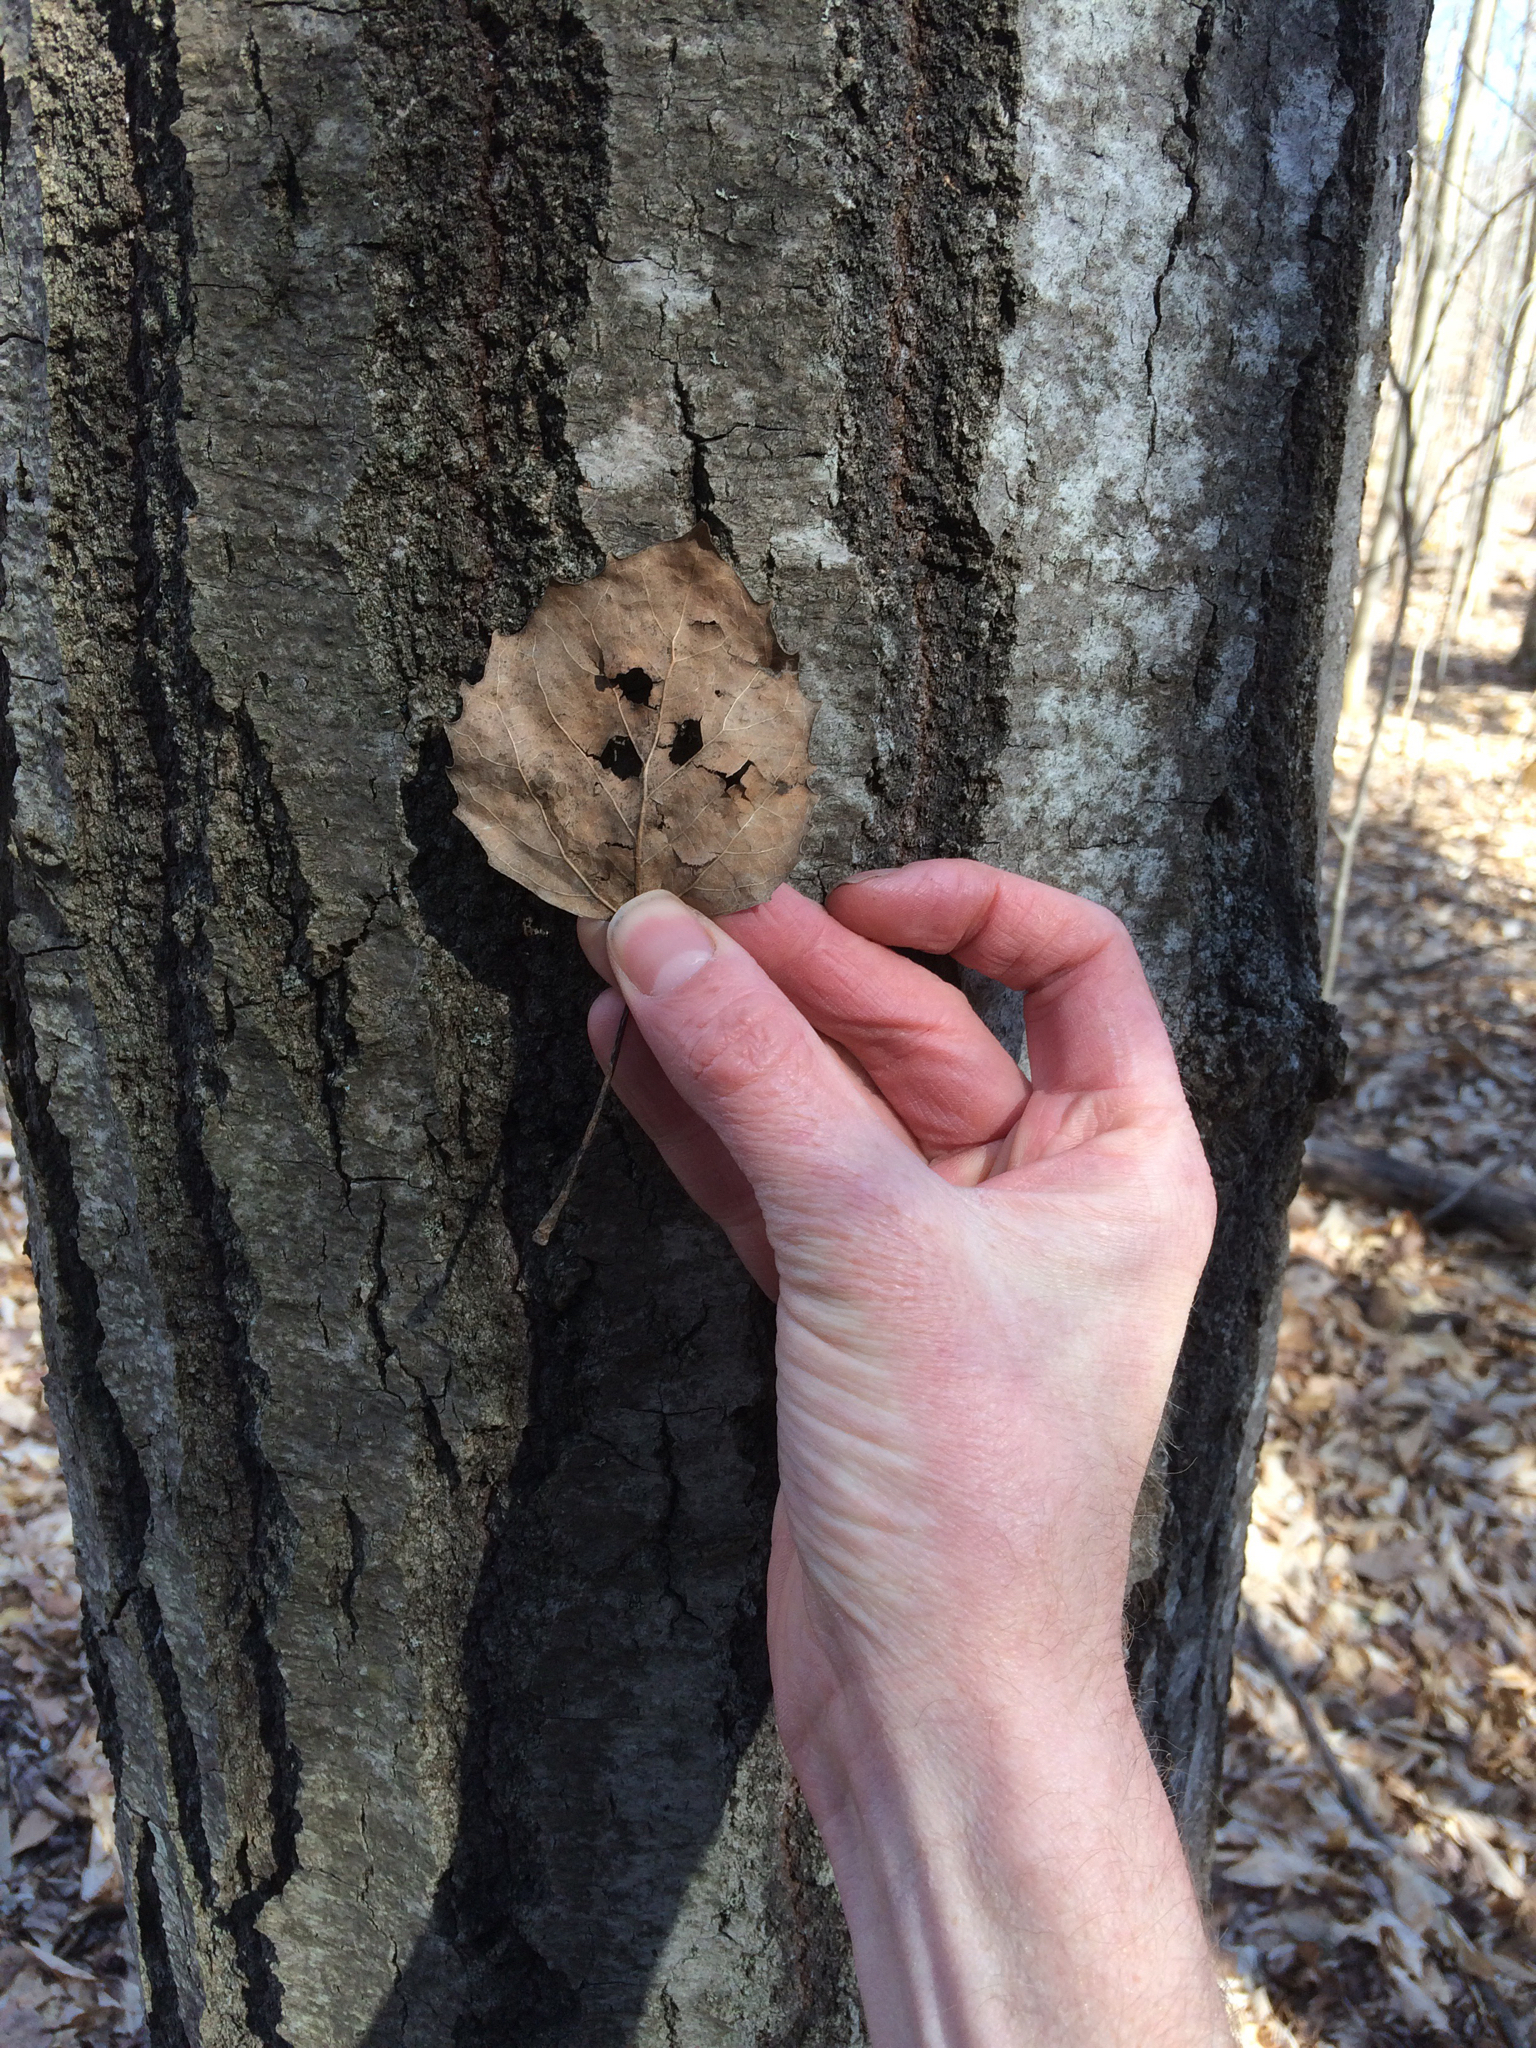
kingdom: Plantae
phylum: Tracheophyta
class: Magnoliopsida
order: Malpighiales
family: Salicaceae
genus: Populus
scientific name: Populus grandidentata
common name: Bigtooth aspen
